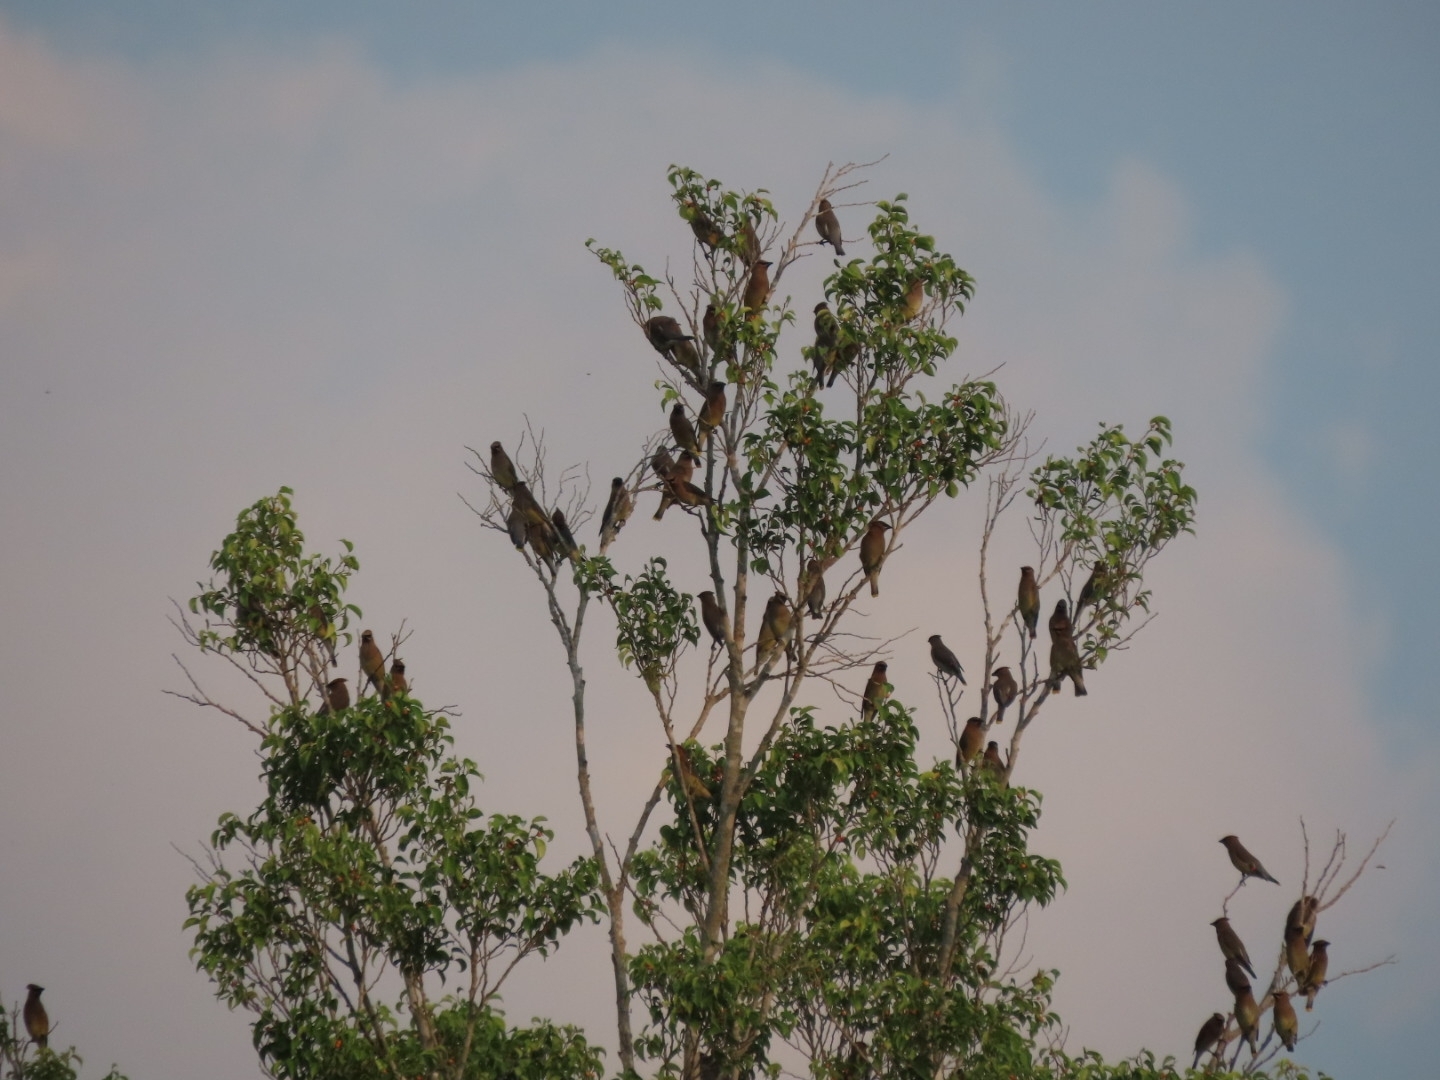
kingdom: Animalia
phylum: Chordata
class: Aves
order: Passeriformes
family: Bombycillidae
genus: Bombycilla
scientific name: Bombycilla cedrorum
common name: Cedar waxwing
